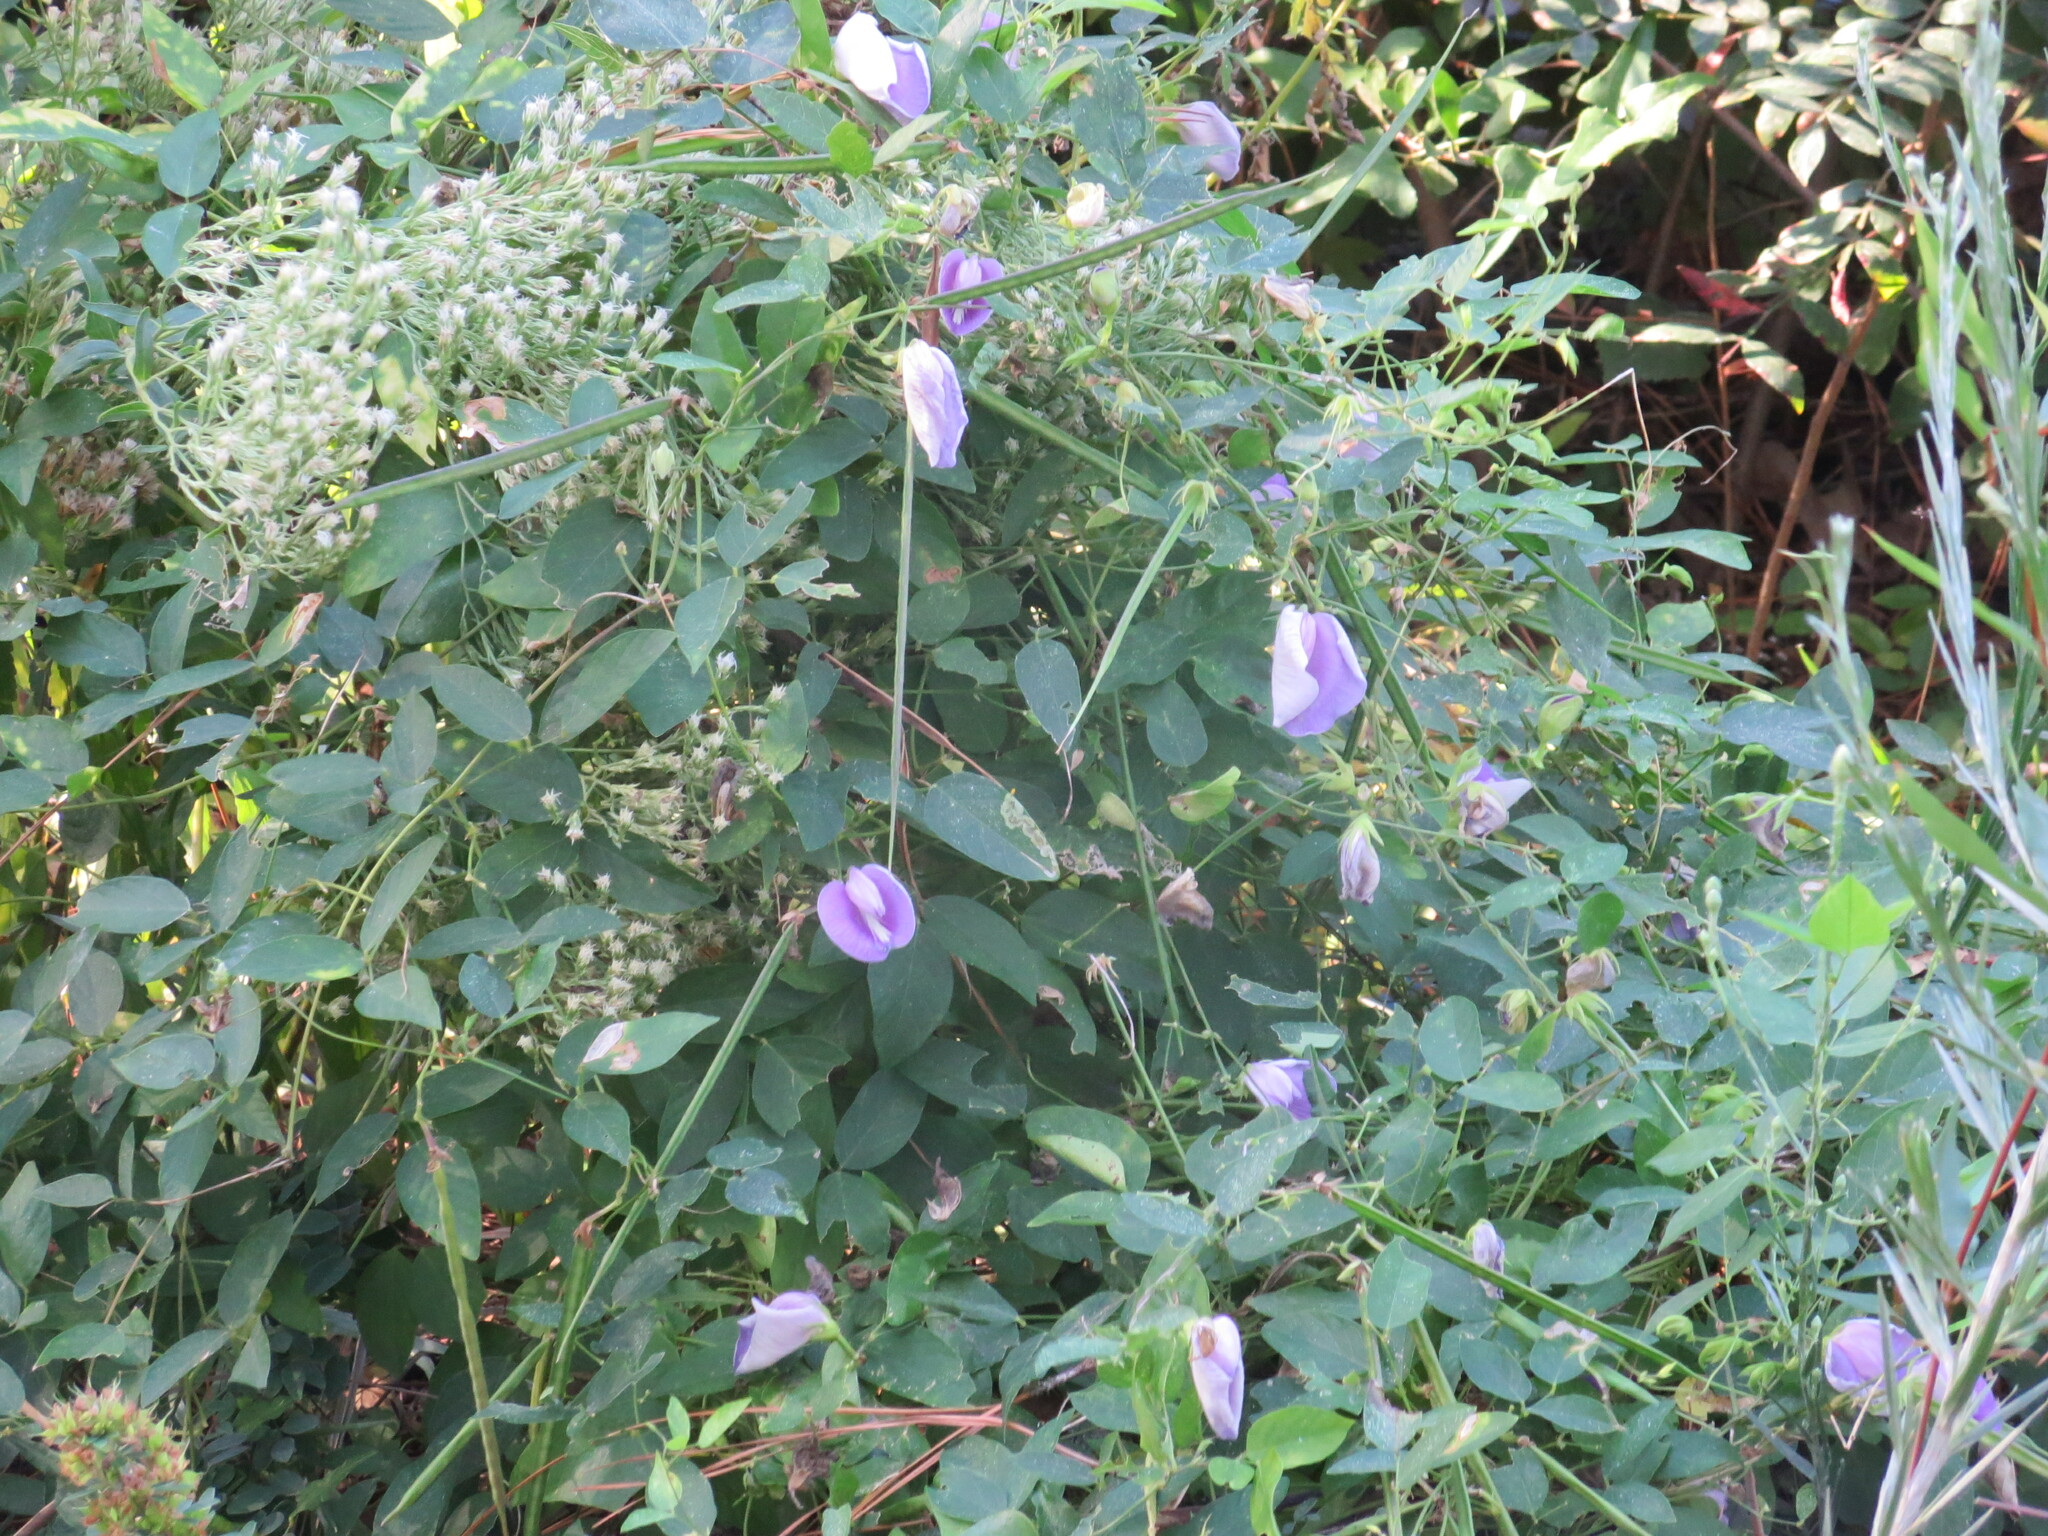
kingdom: Plantae
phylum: Tracheophyta
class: Magnoliopsida
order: Fabales
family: Fabaceae
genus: Centrosema
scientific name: Centrosema virginianum
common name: Butterfly-pea
